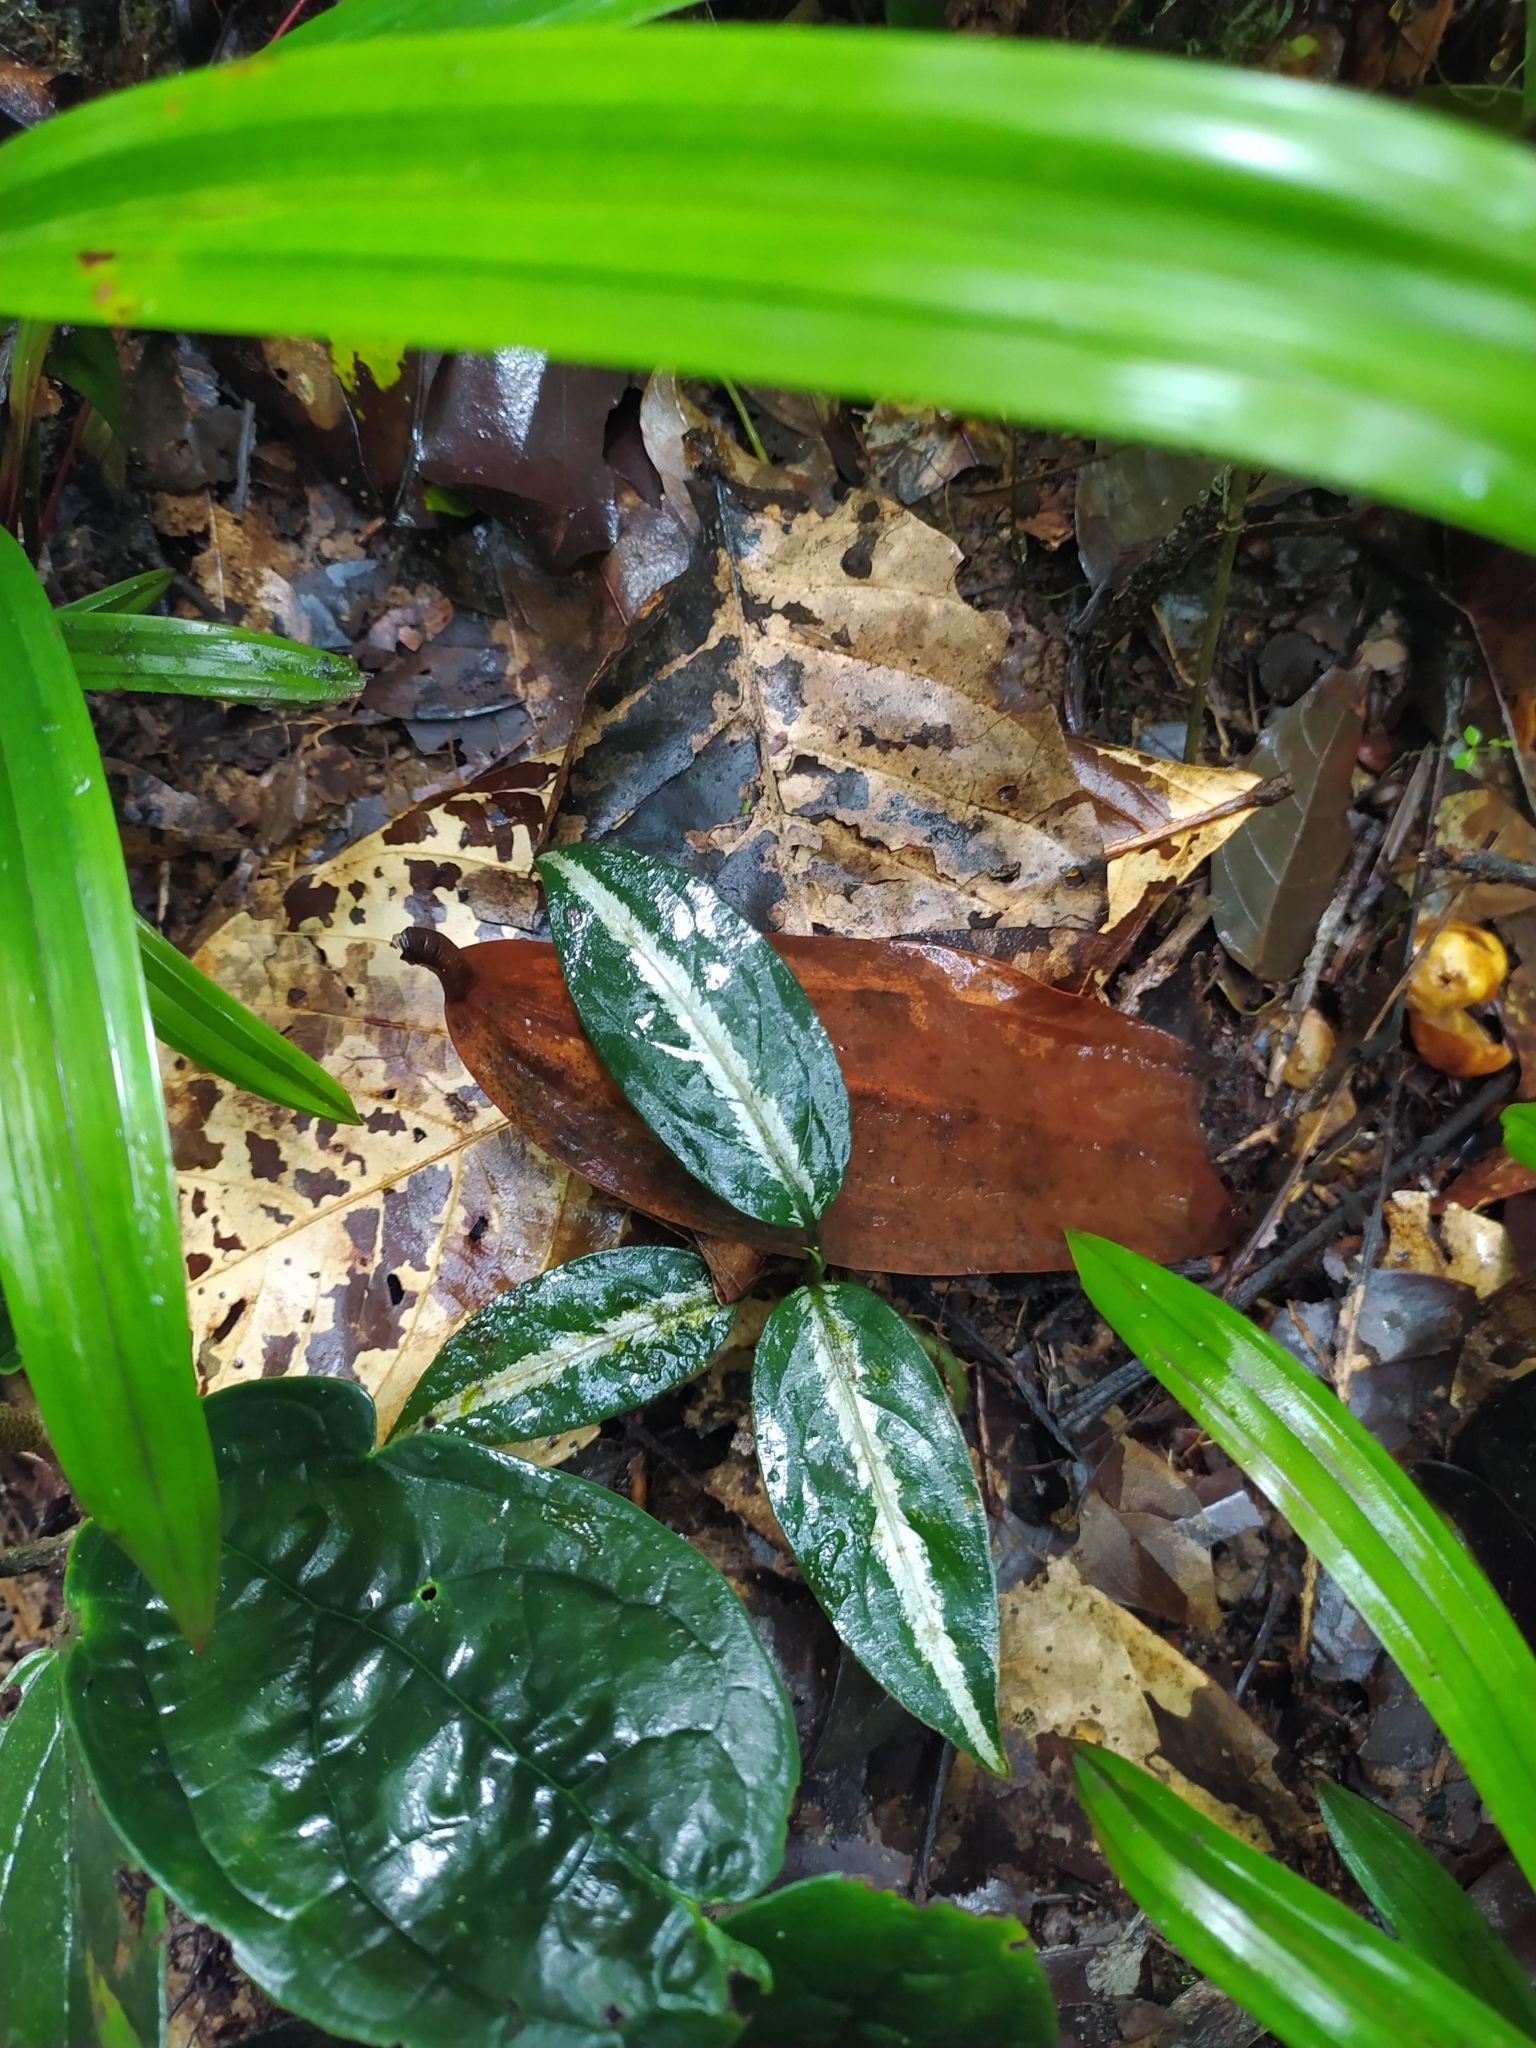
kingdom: Plantae
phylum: Tracheophyta
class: Magnoliopsida
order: Piperales
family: Piperaceae
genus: Piper
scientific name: Piper trichoneuron
